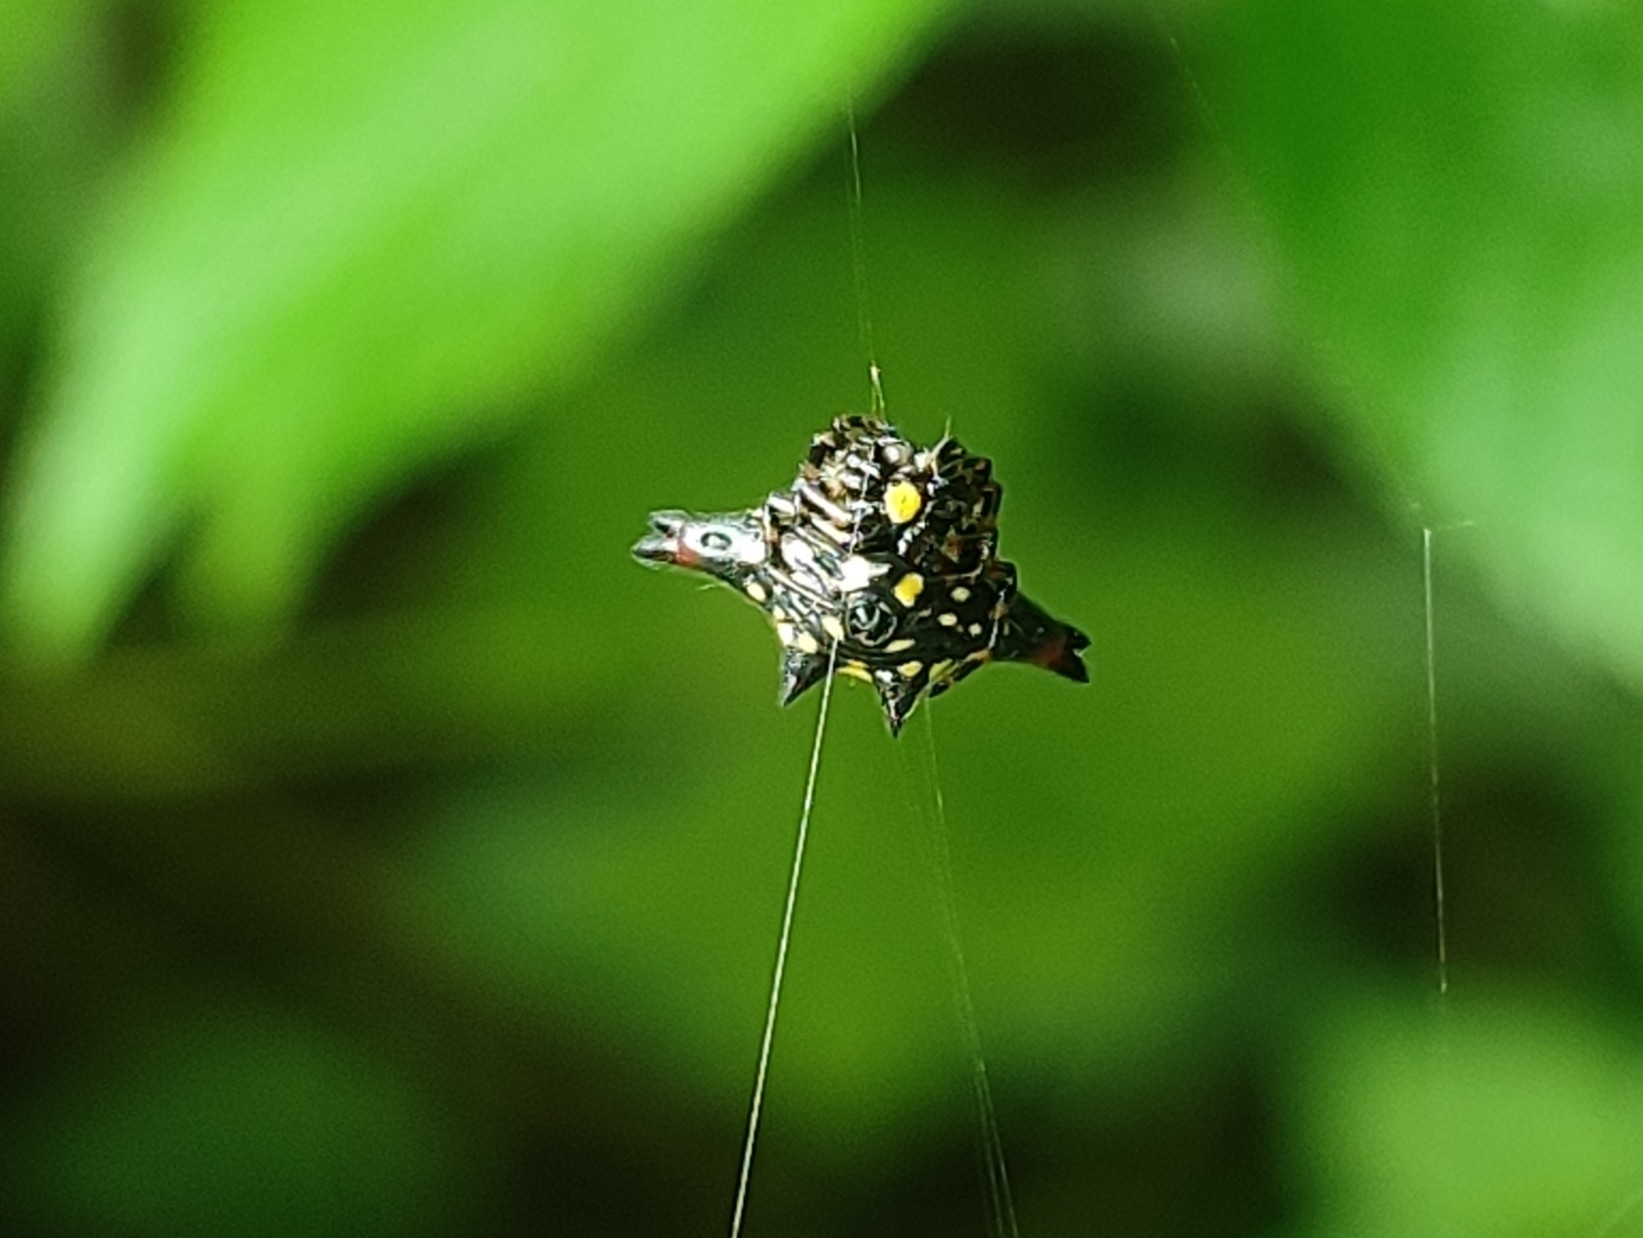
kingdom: Animalia
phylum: Arthropoda
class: Arachnida
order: Araneae
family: Araneidae
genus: Gasteracantha
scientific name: Gasteracantha geminata
